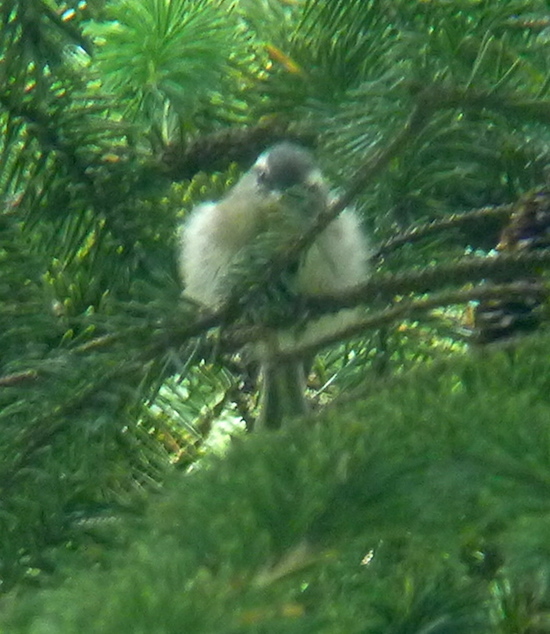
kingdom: Animalia
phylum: Chordata
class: Aves
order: Passeriformes
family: Regulidae
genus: Regulus
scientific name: Regulus satrapa
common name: Golden-crowned kinglet
